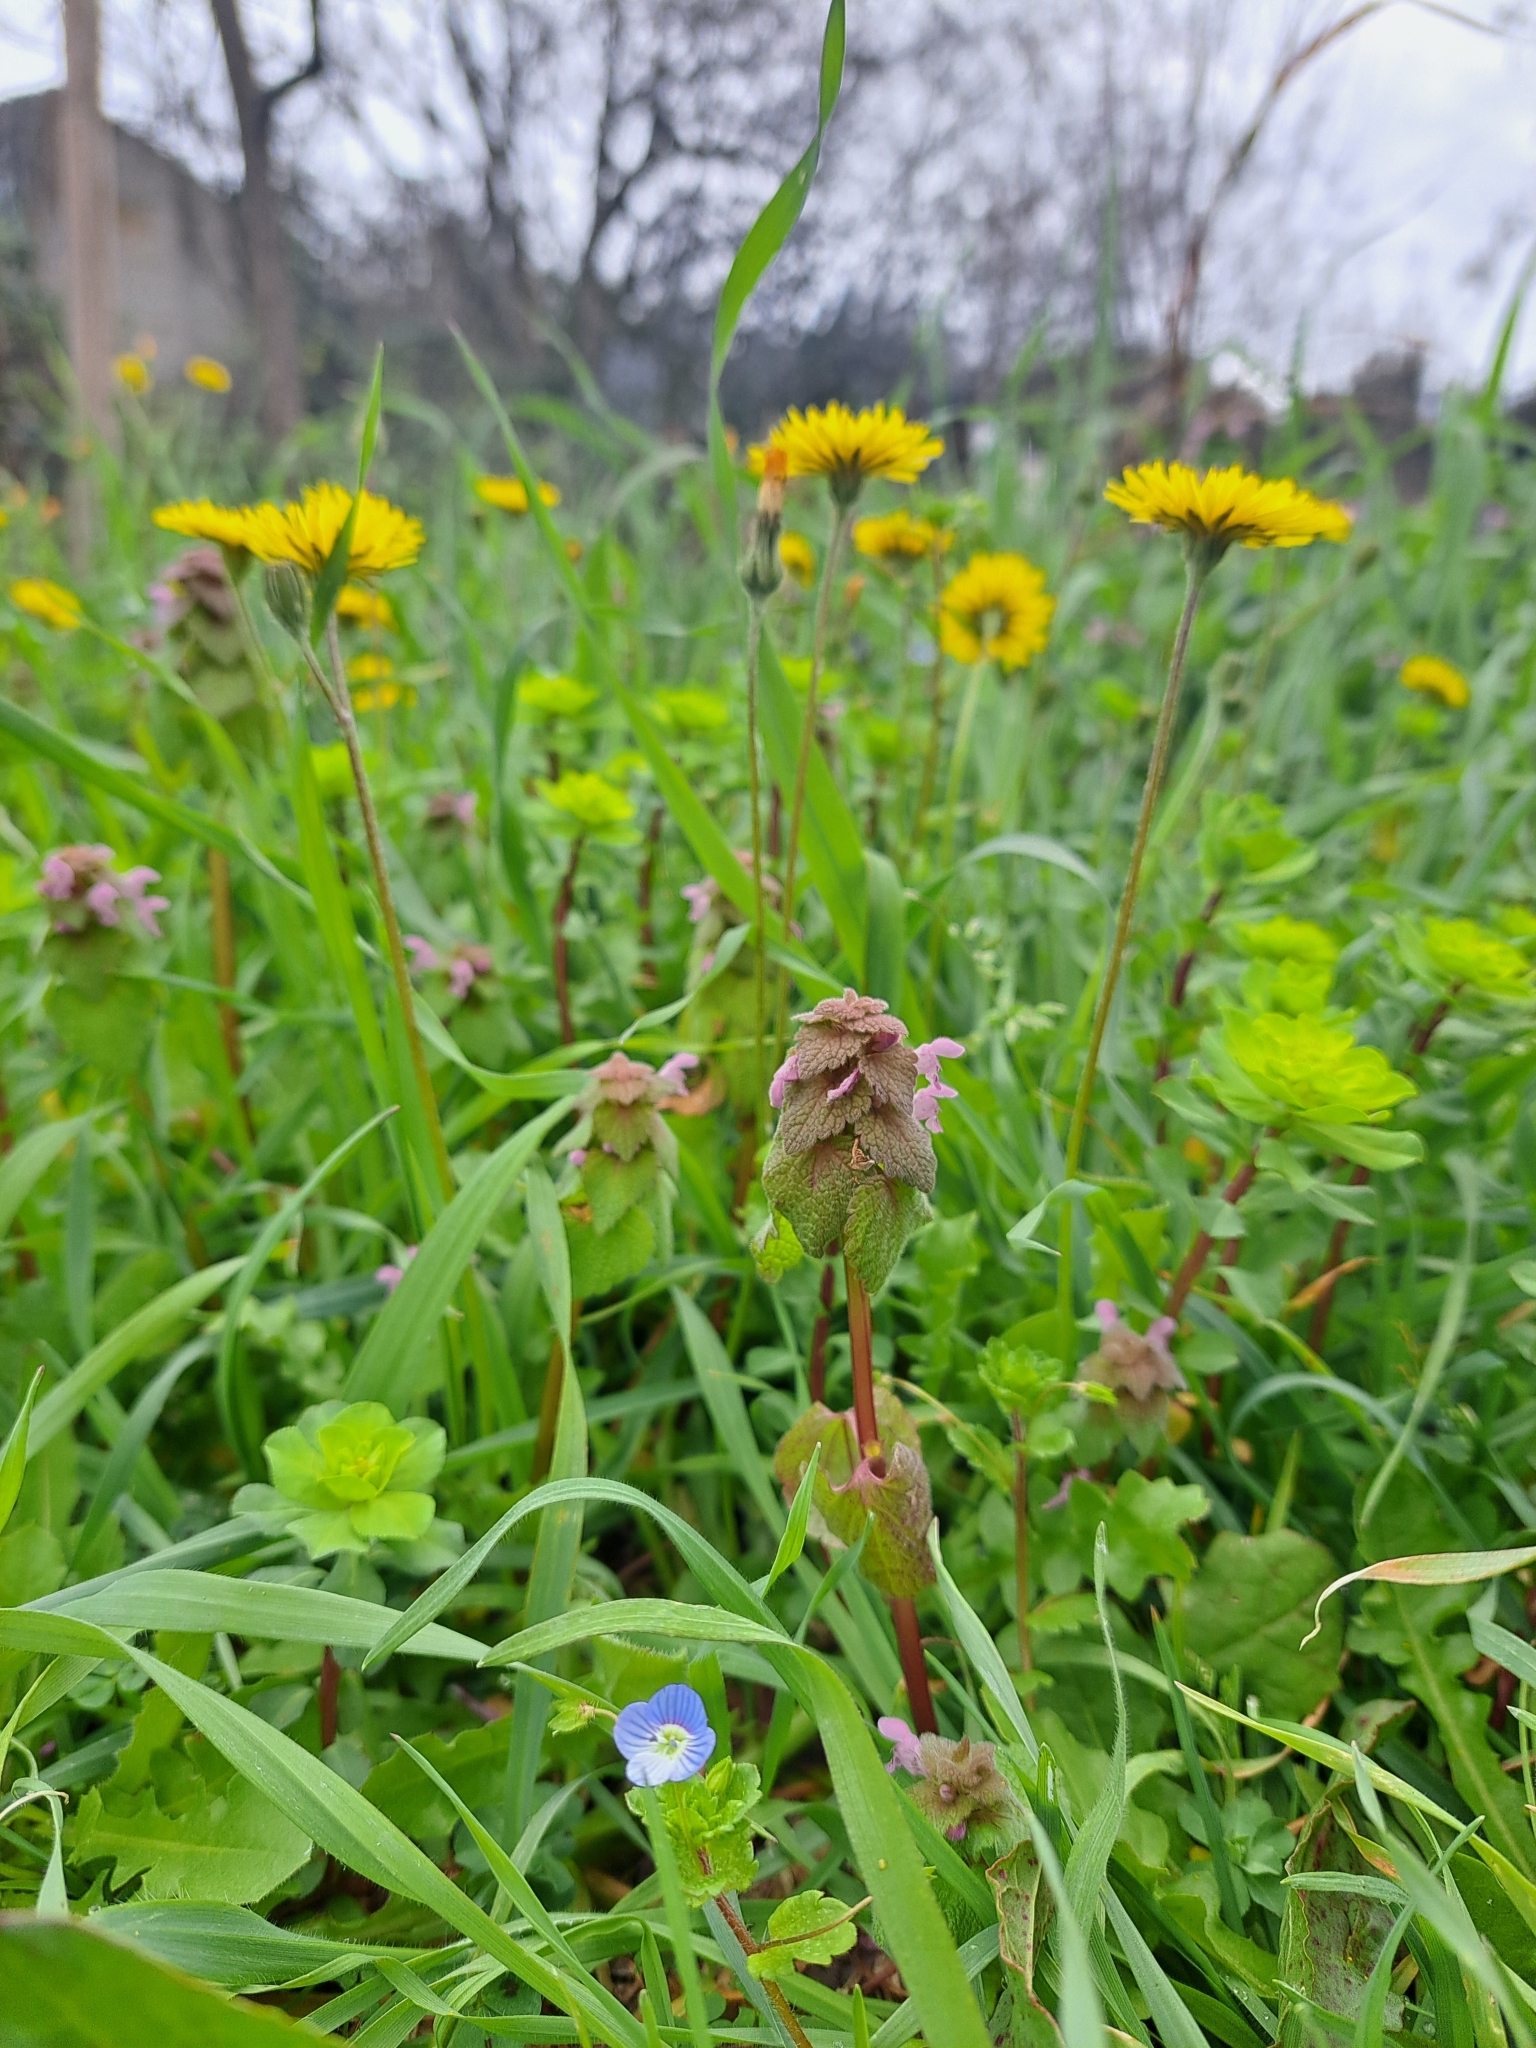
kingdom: Plantae
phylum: Tracheophyta
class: Magnoliopsida
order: Lamiales
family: Plantaginaceae
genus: Veronica
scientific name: Veronica persica
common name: Common field-speedwell
